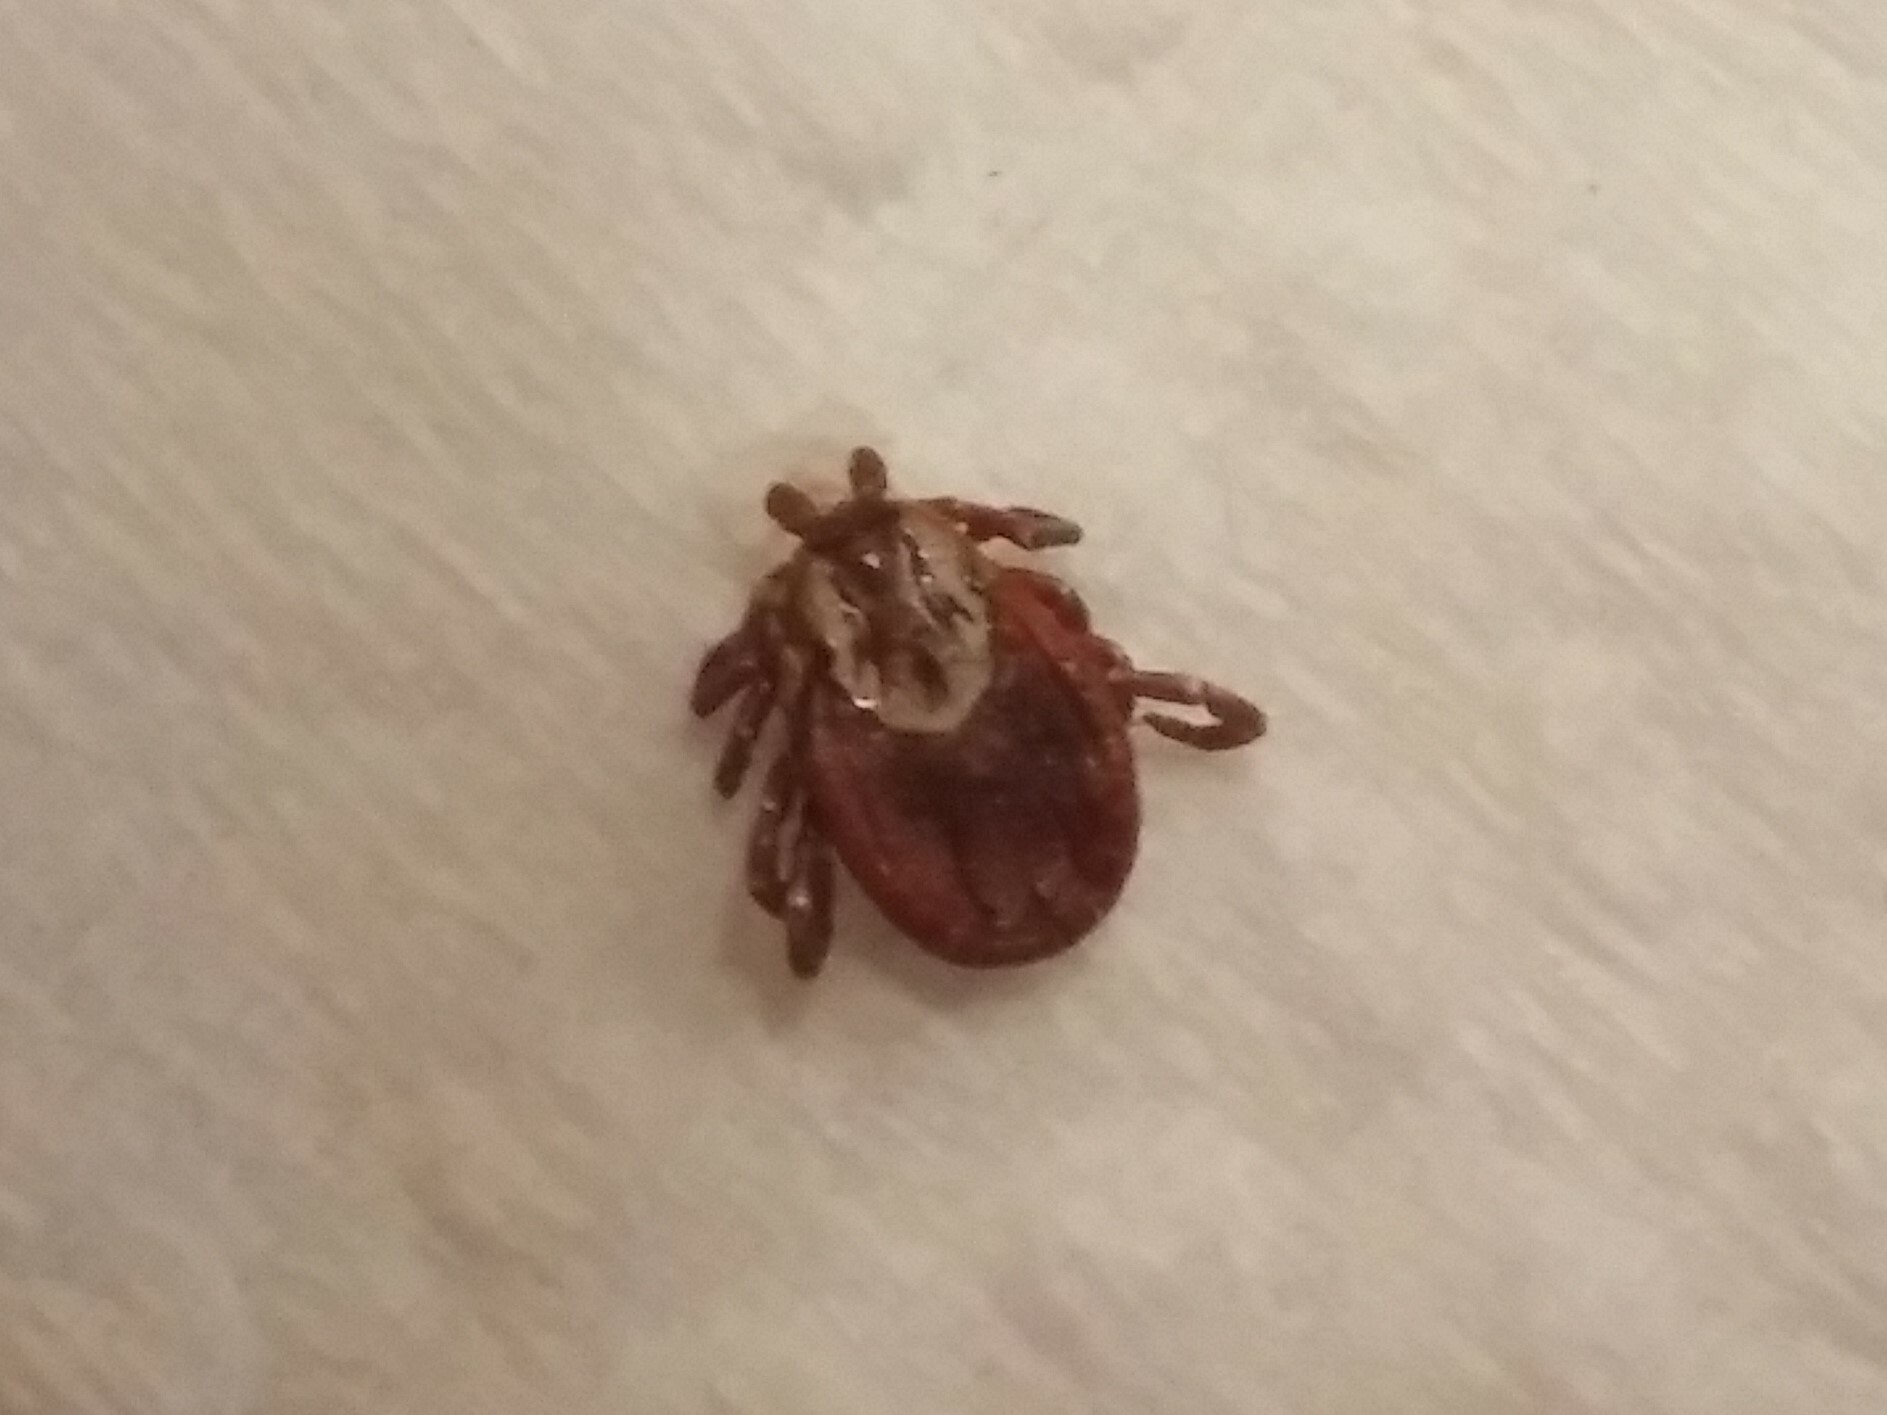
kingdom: Animalia
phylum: Arthropoda
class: Arachnida
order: Ixodida
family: Ixodidae
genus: Dermacentor
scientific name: Dermacentor variabilis
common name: American dog tick
